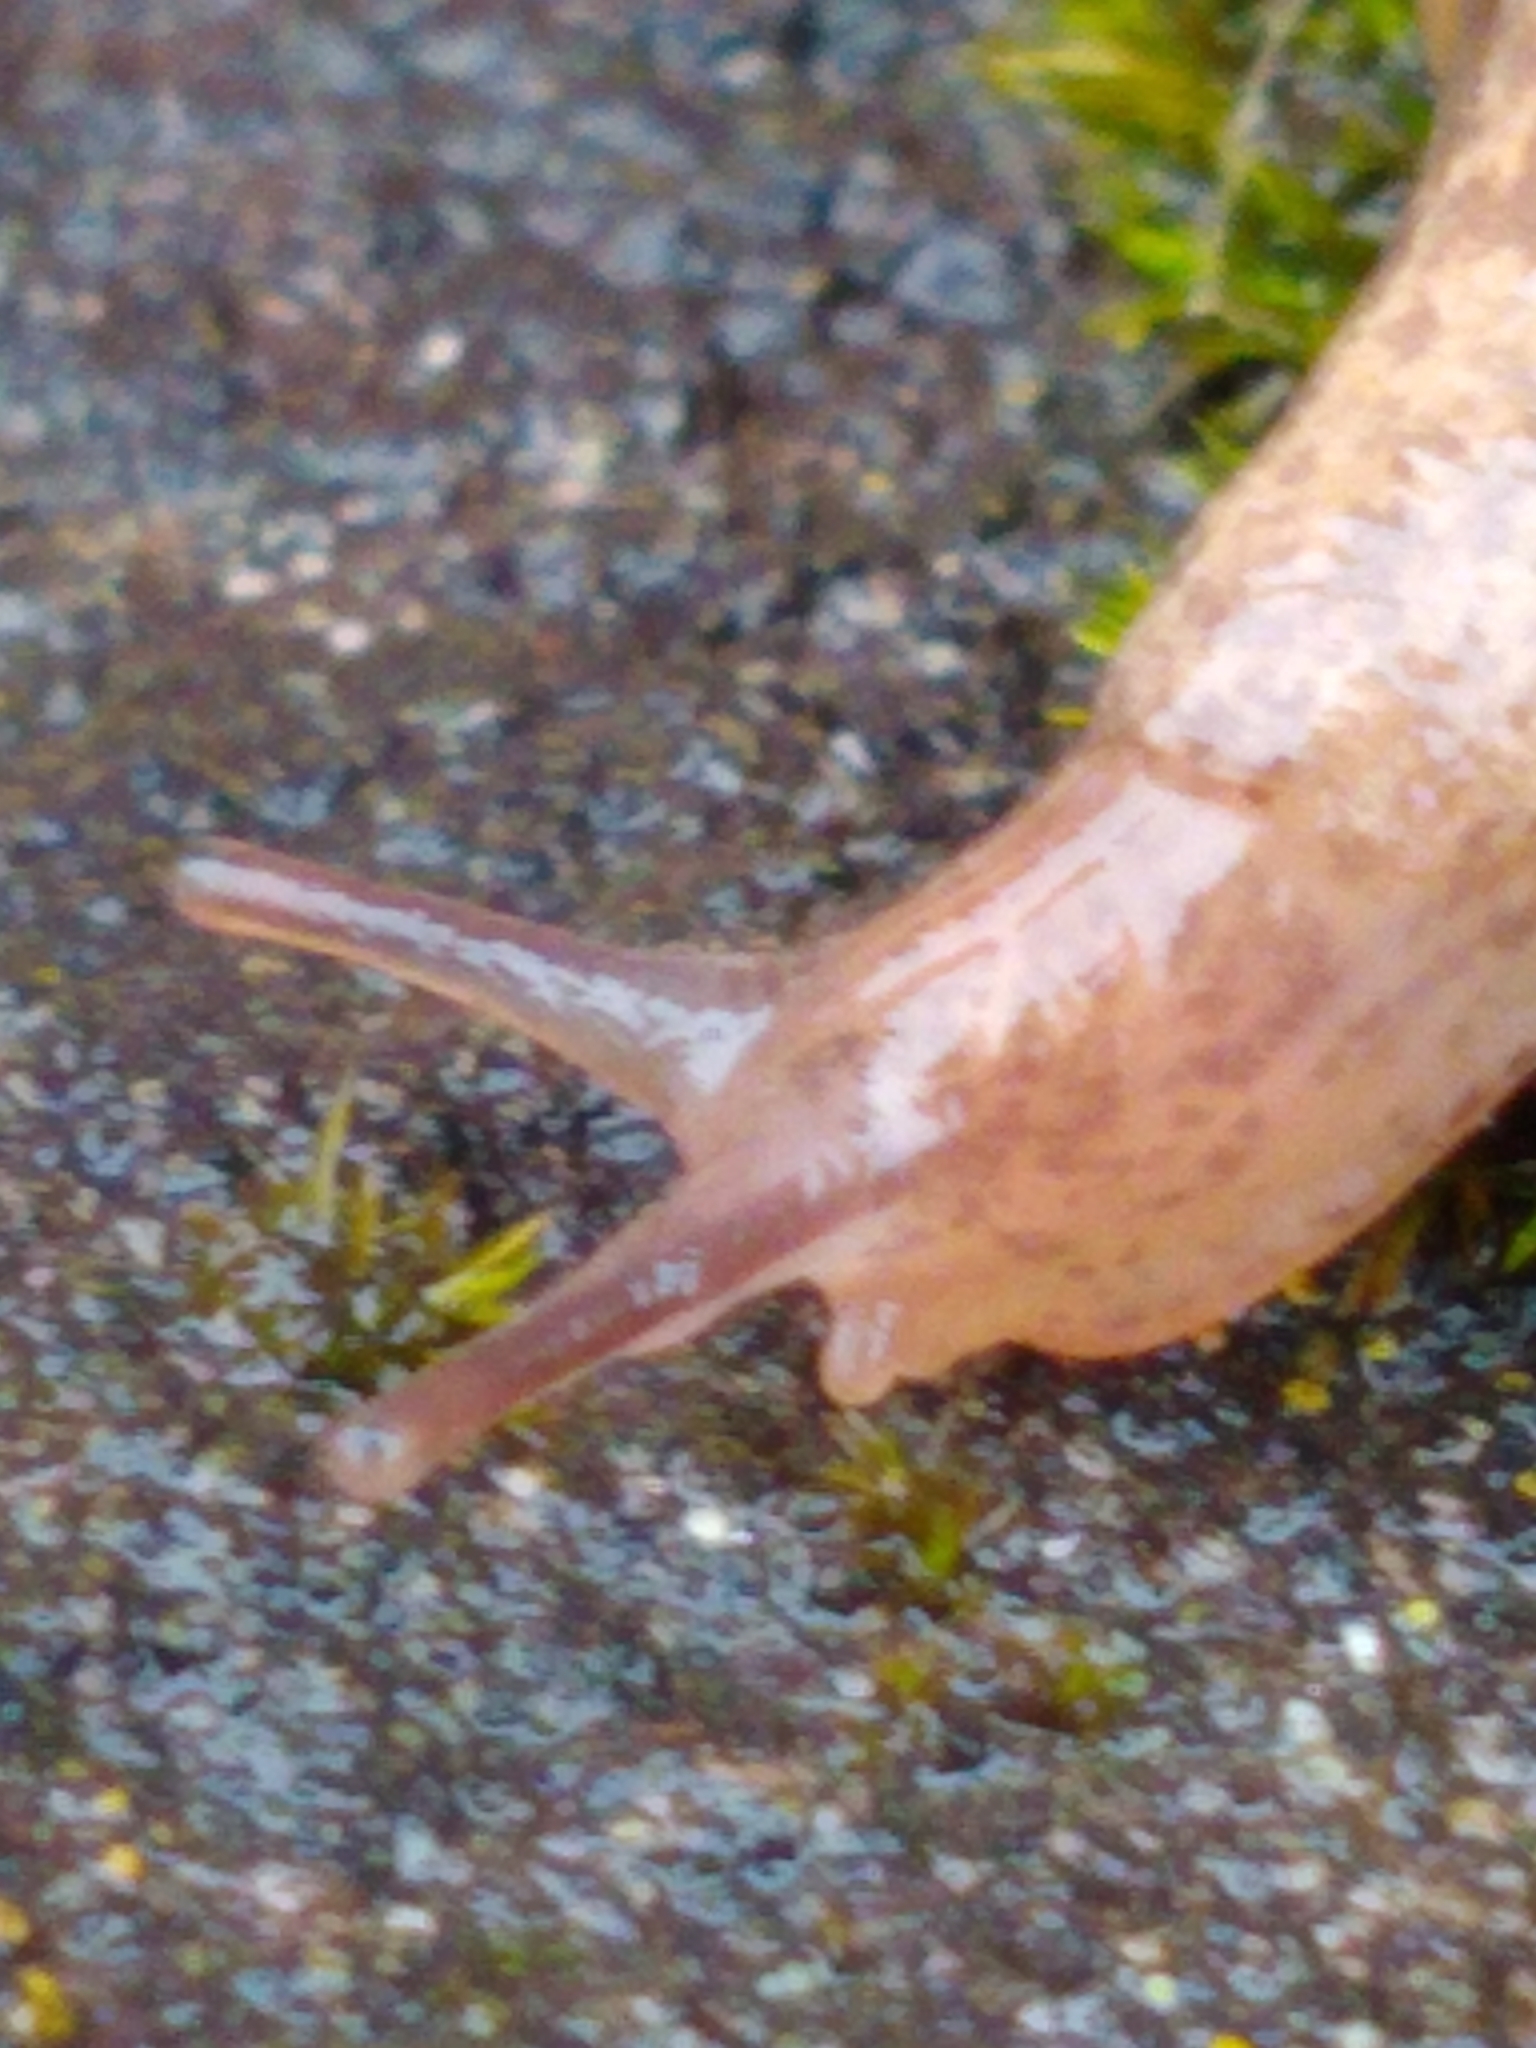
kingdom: Animalia
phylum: Mollusca
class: Gastropoda
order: Stylommatophora
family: Agriolimacidae
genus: Deroceras
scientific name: Deroceras reticulatum
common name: Gray field slug
